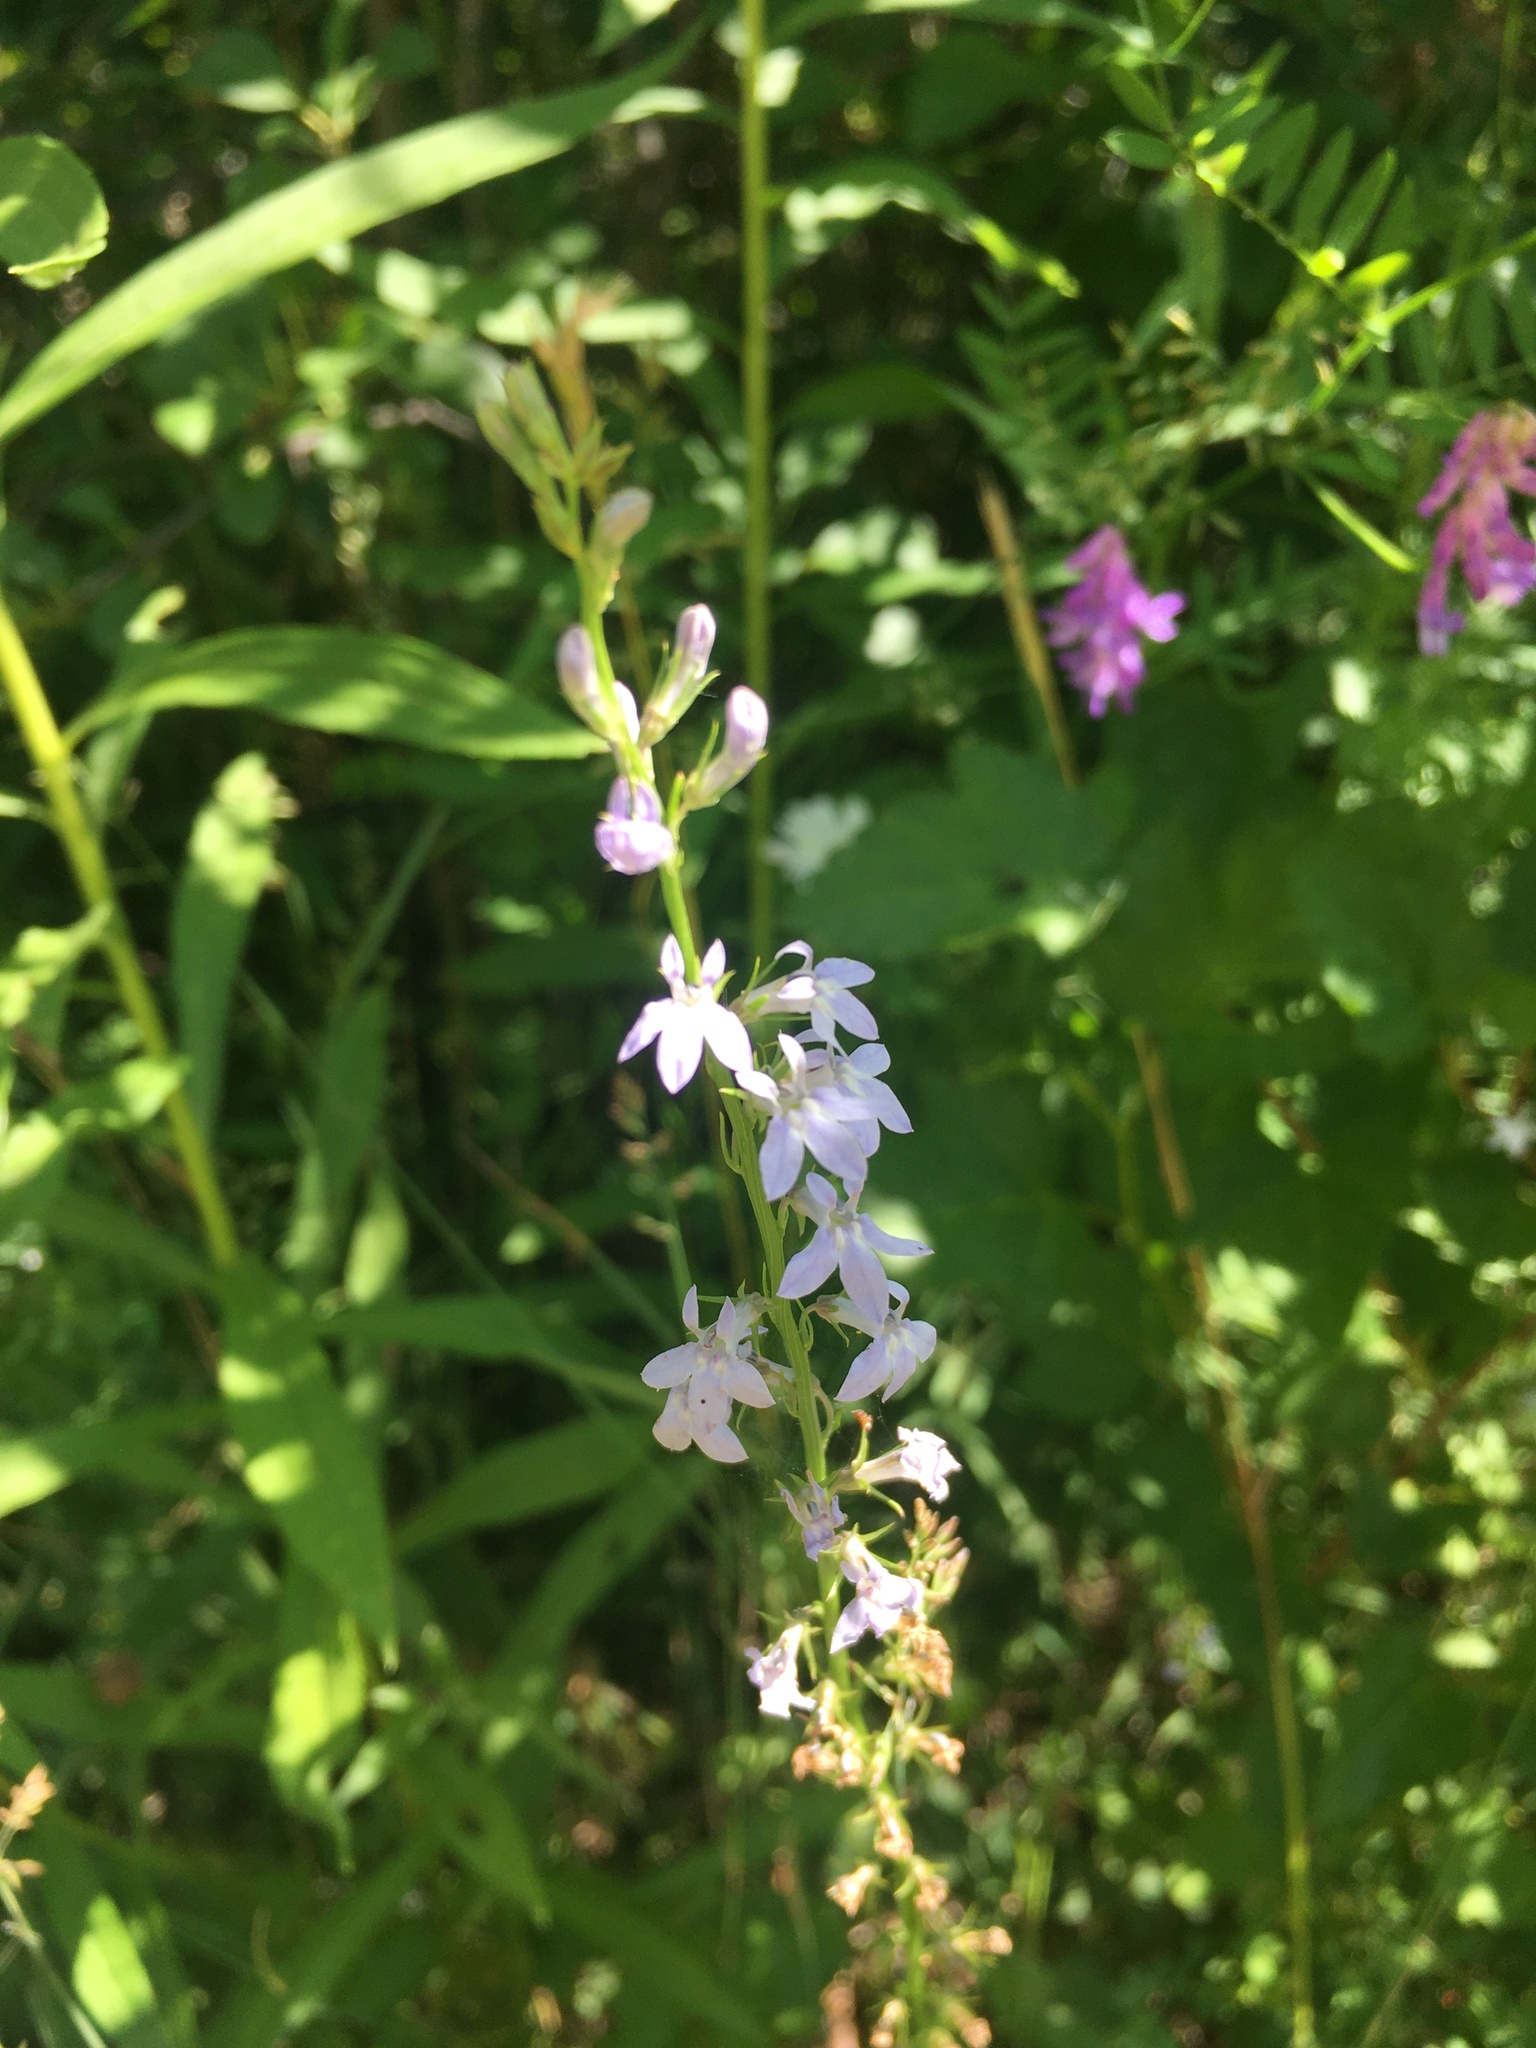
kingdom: Plantae
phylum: Tracheophyta
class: Magnoliopsida
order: Asterales
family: Campanulaceae
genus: Lobelia
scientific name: Lobelia spicata
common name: Pale-spike lobelia
